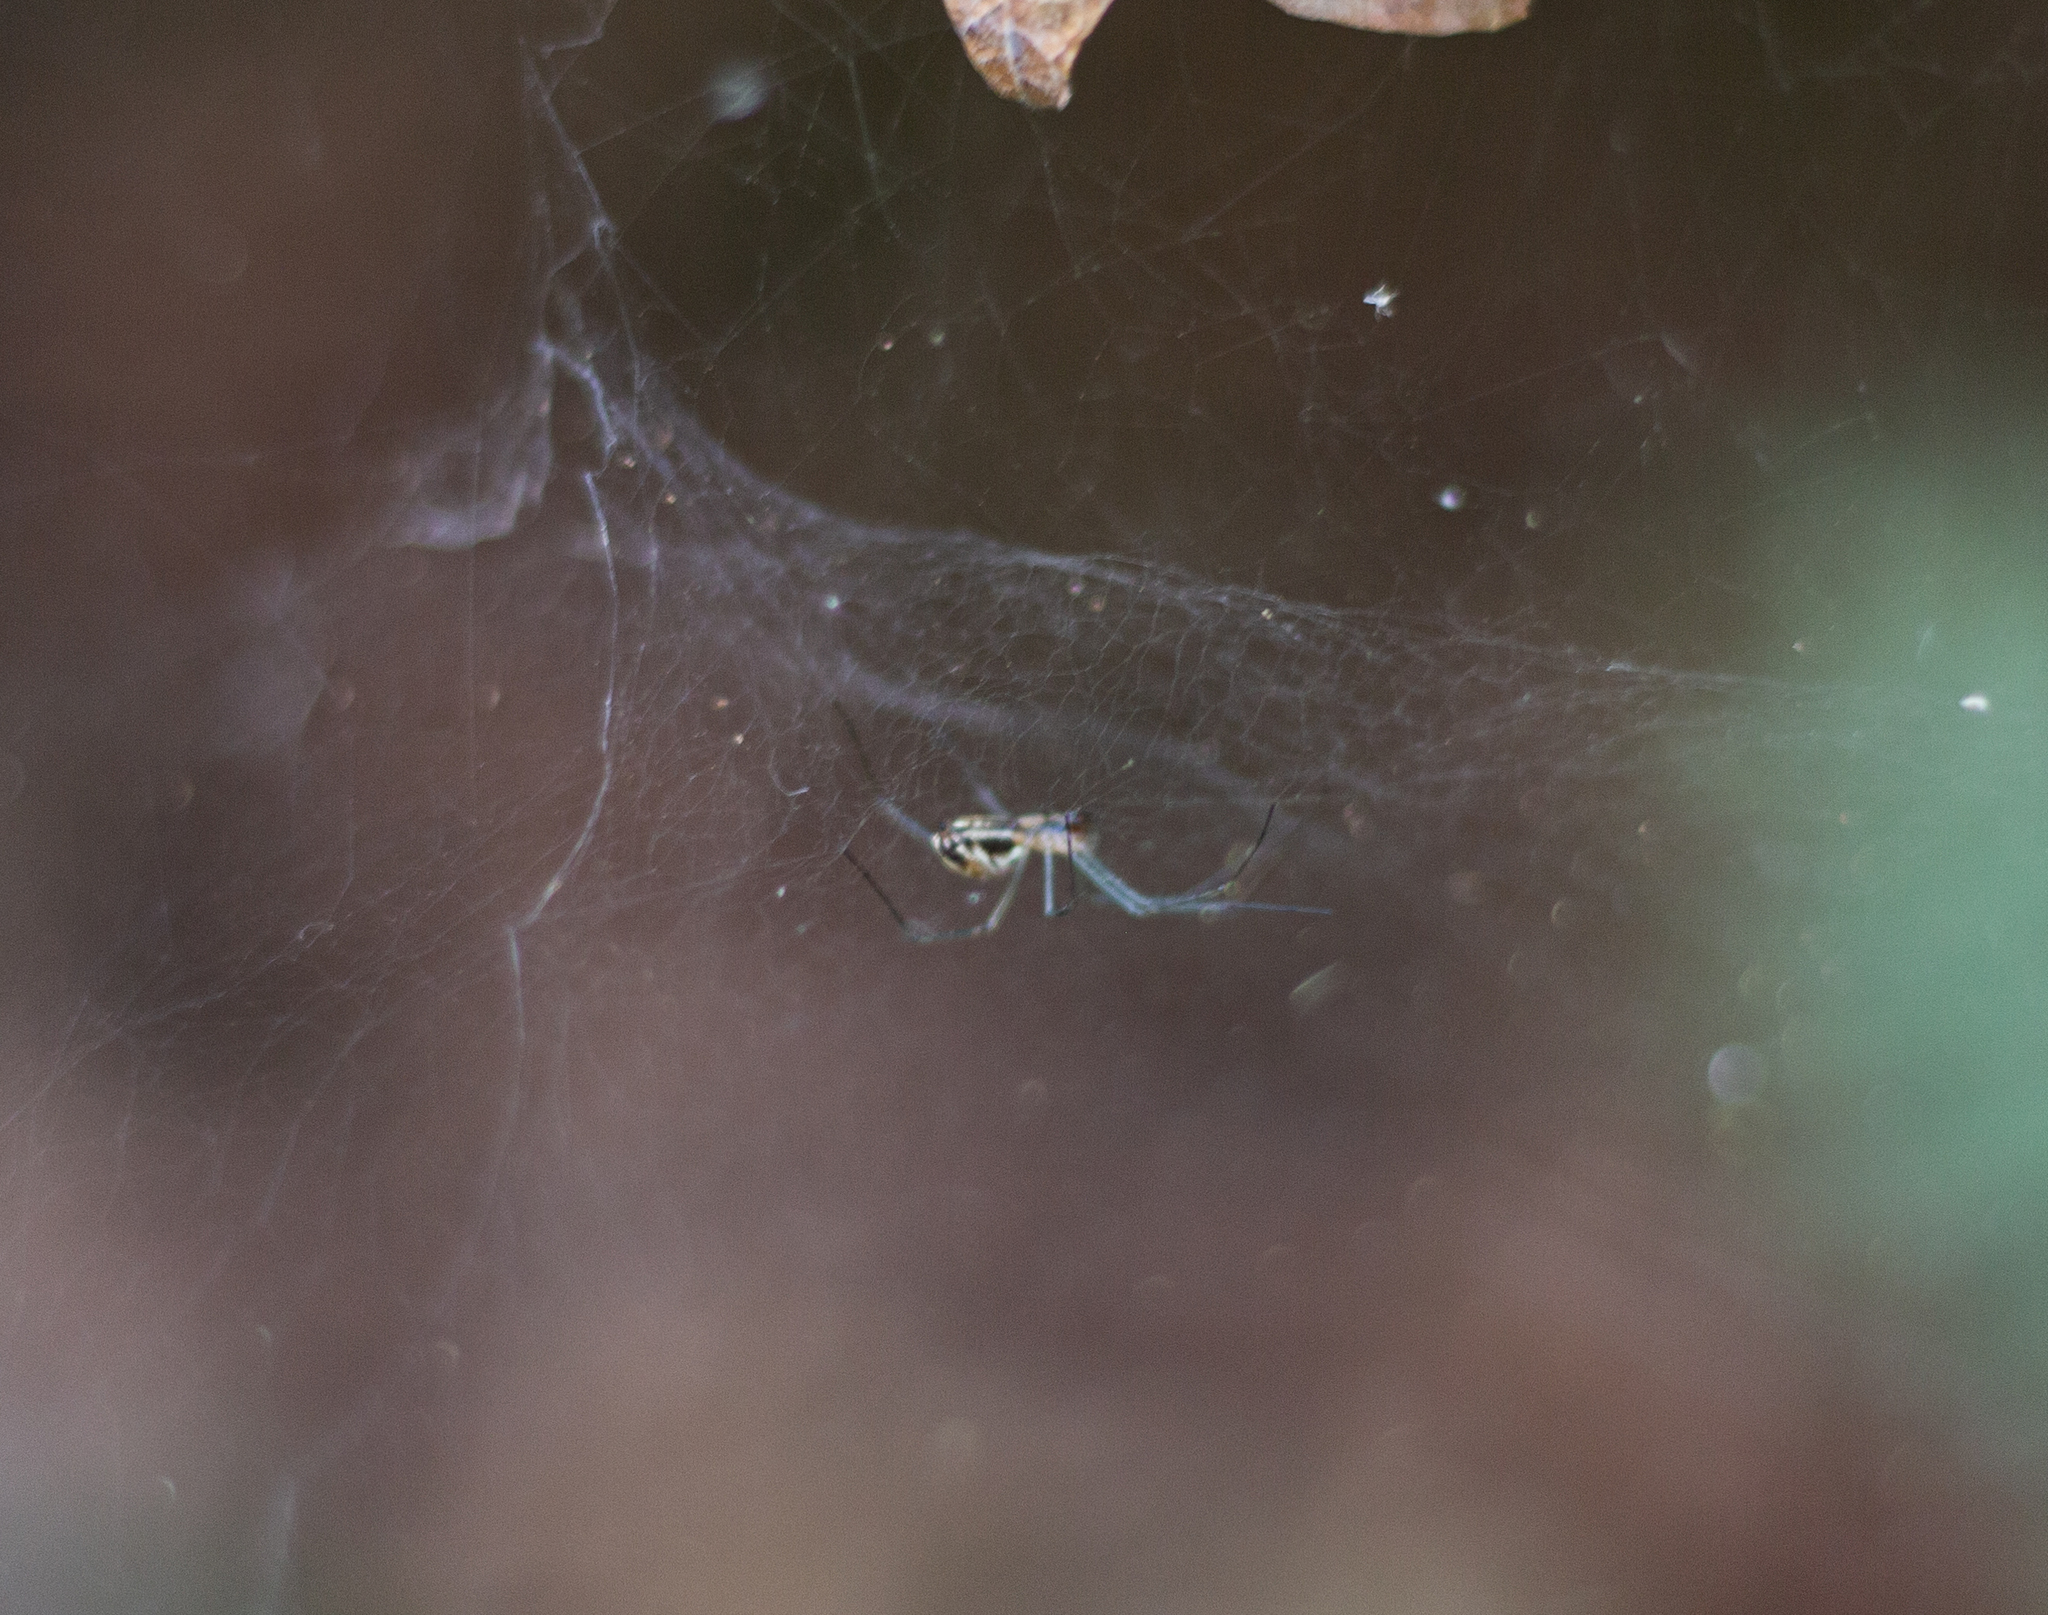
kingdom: Animalia
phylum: Arthropoda
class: Arachnida
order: Araneae
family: Linyphiidae
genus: Neriene
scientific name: Neriene litigiosa
